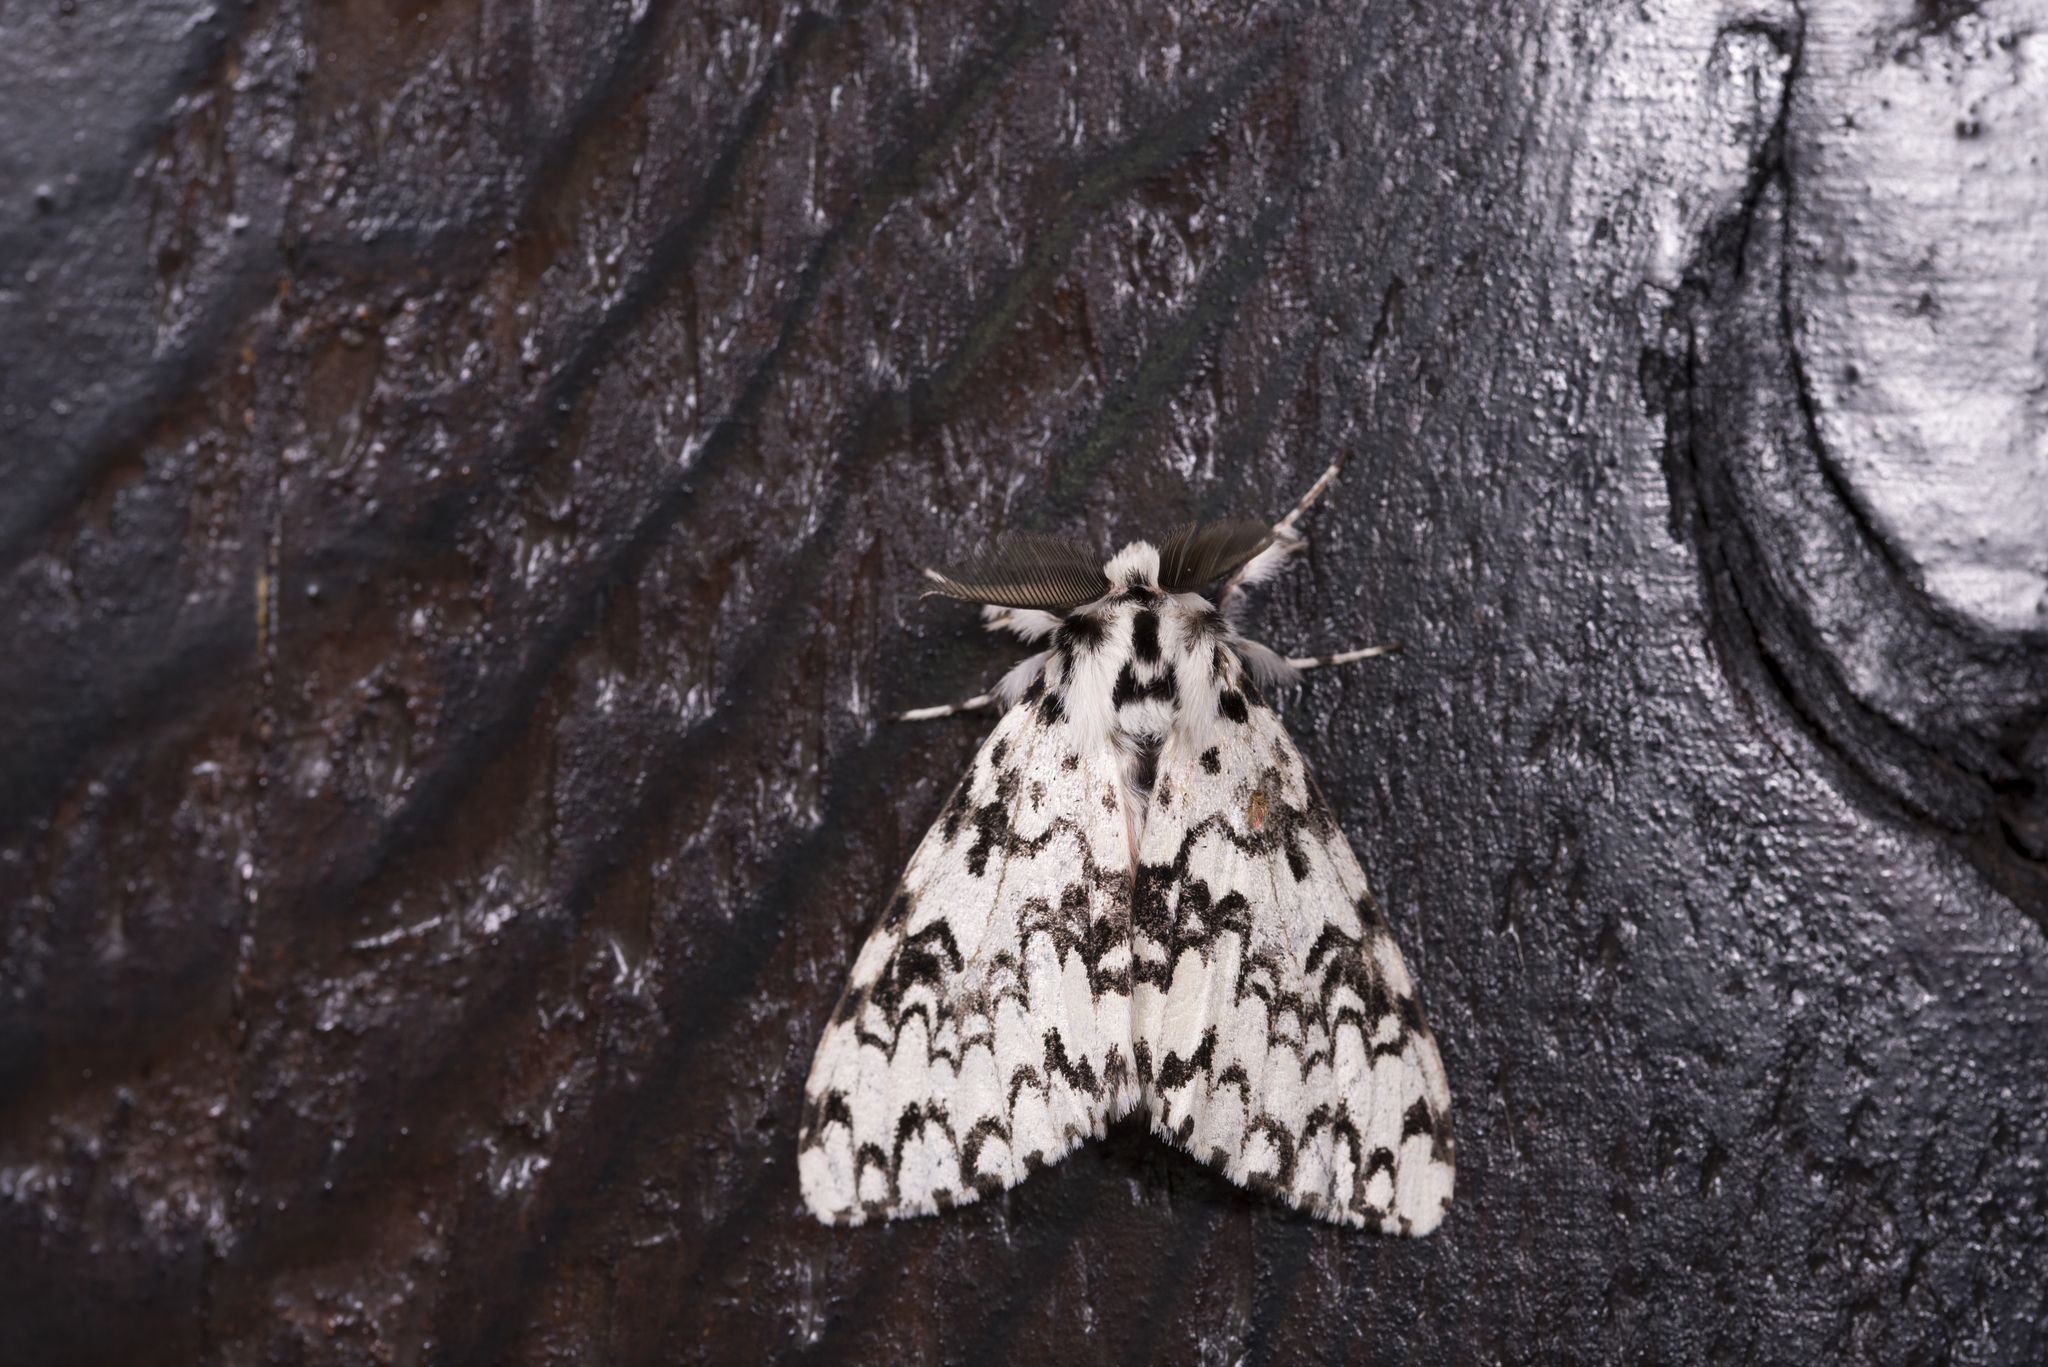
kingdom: Animalia
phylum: Arthropoda
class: Insecta
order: Lepidoptera
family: Erebidae
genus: Lymantria
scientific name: Lymantria concolor
